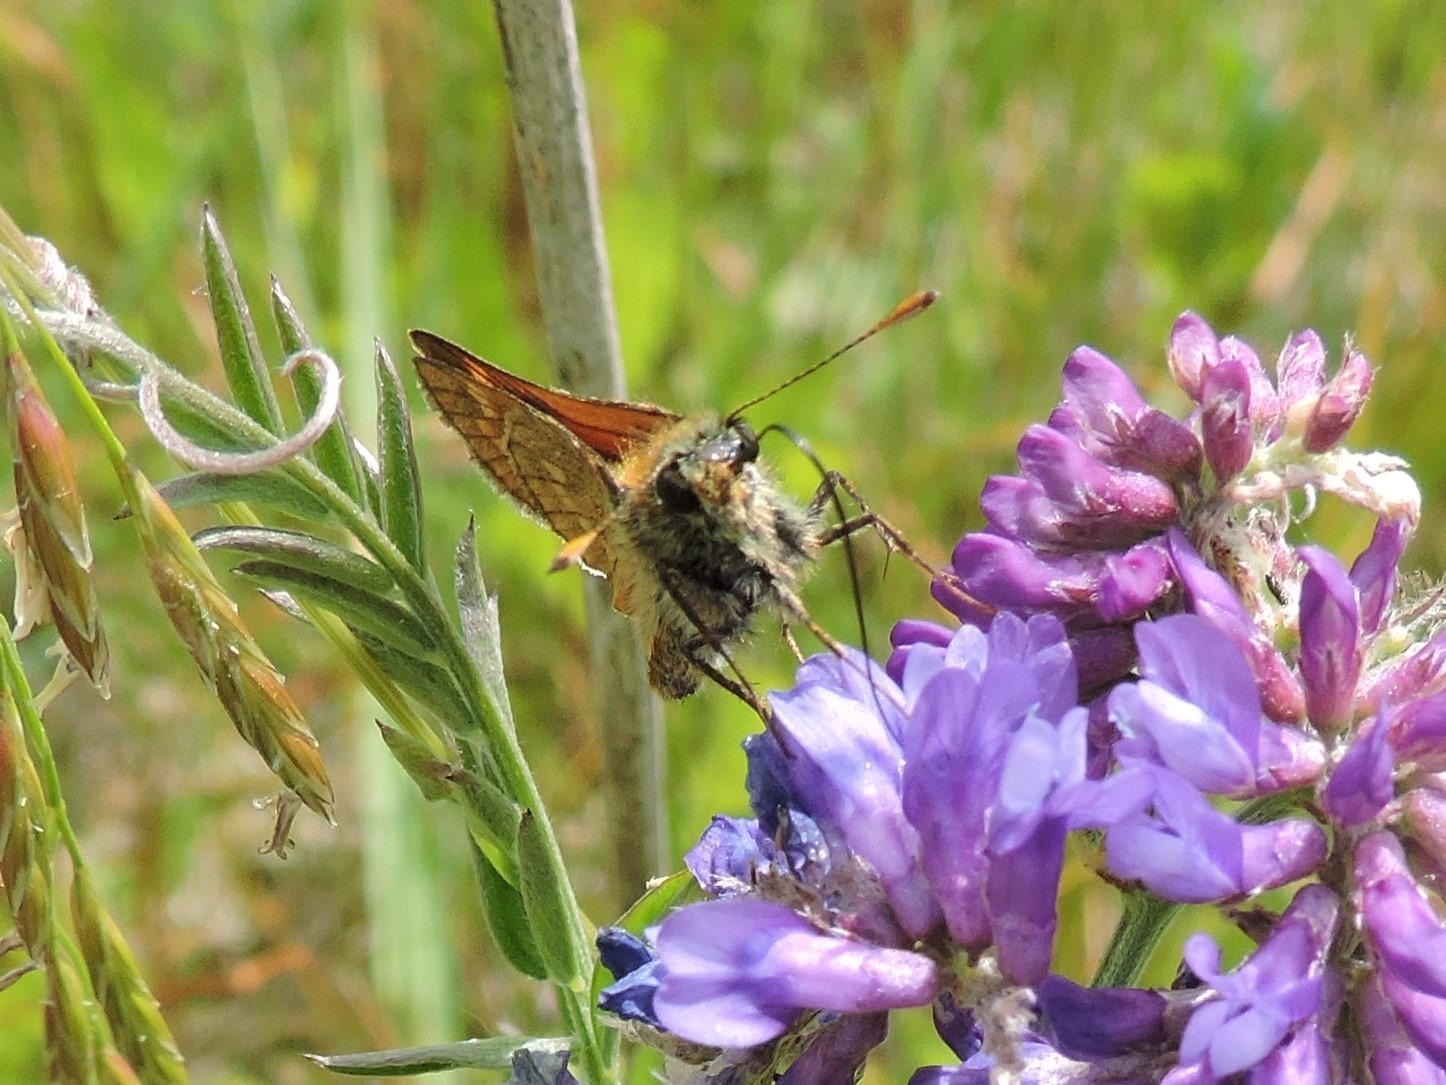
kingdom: Animalia
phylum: Arthropoda
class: Insecta
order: Lepidoptera
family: Hesperiidae
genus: Ochlodes
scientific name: Ochlodes venata
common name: Large skipper
